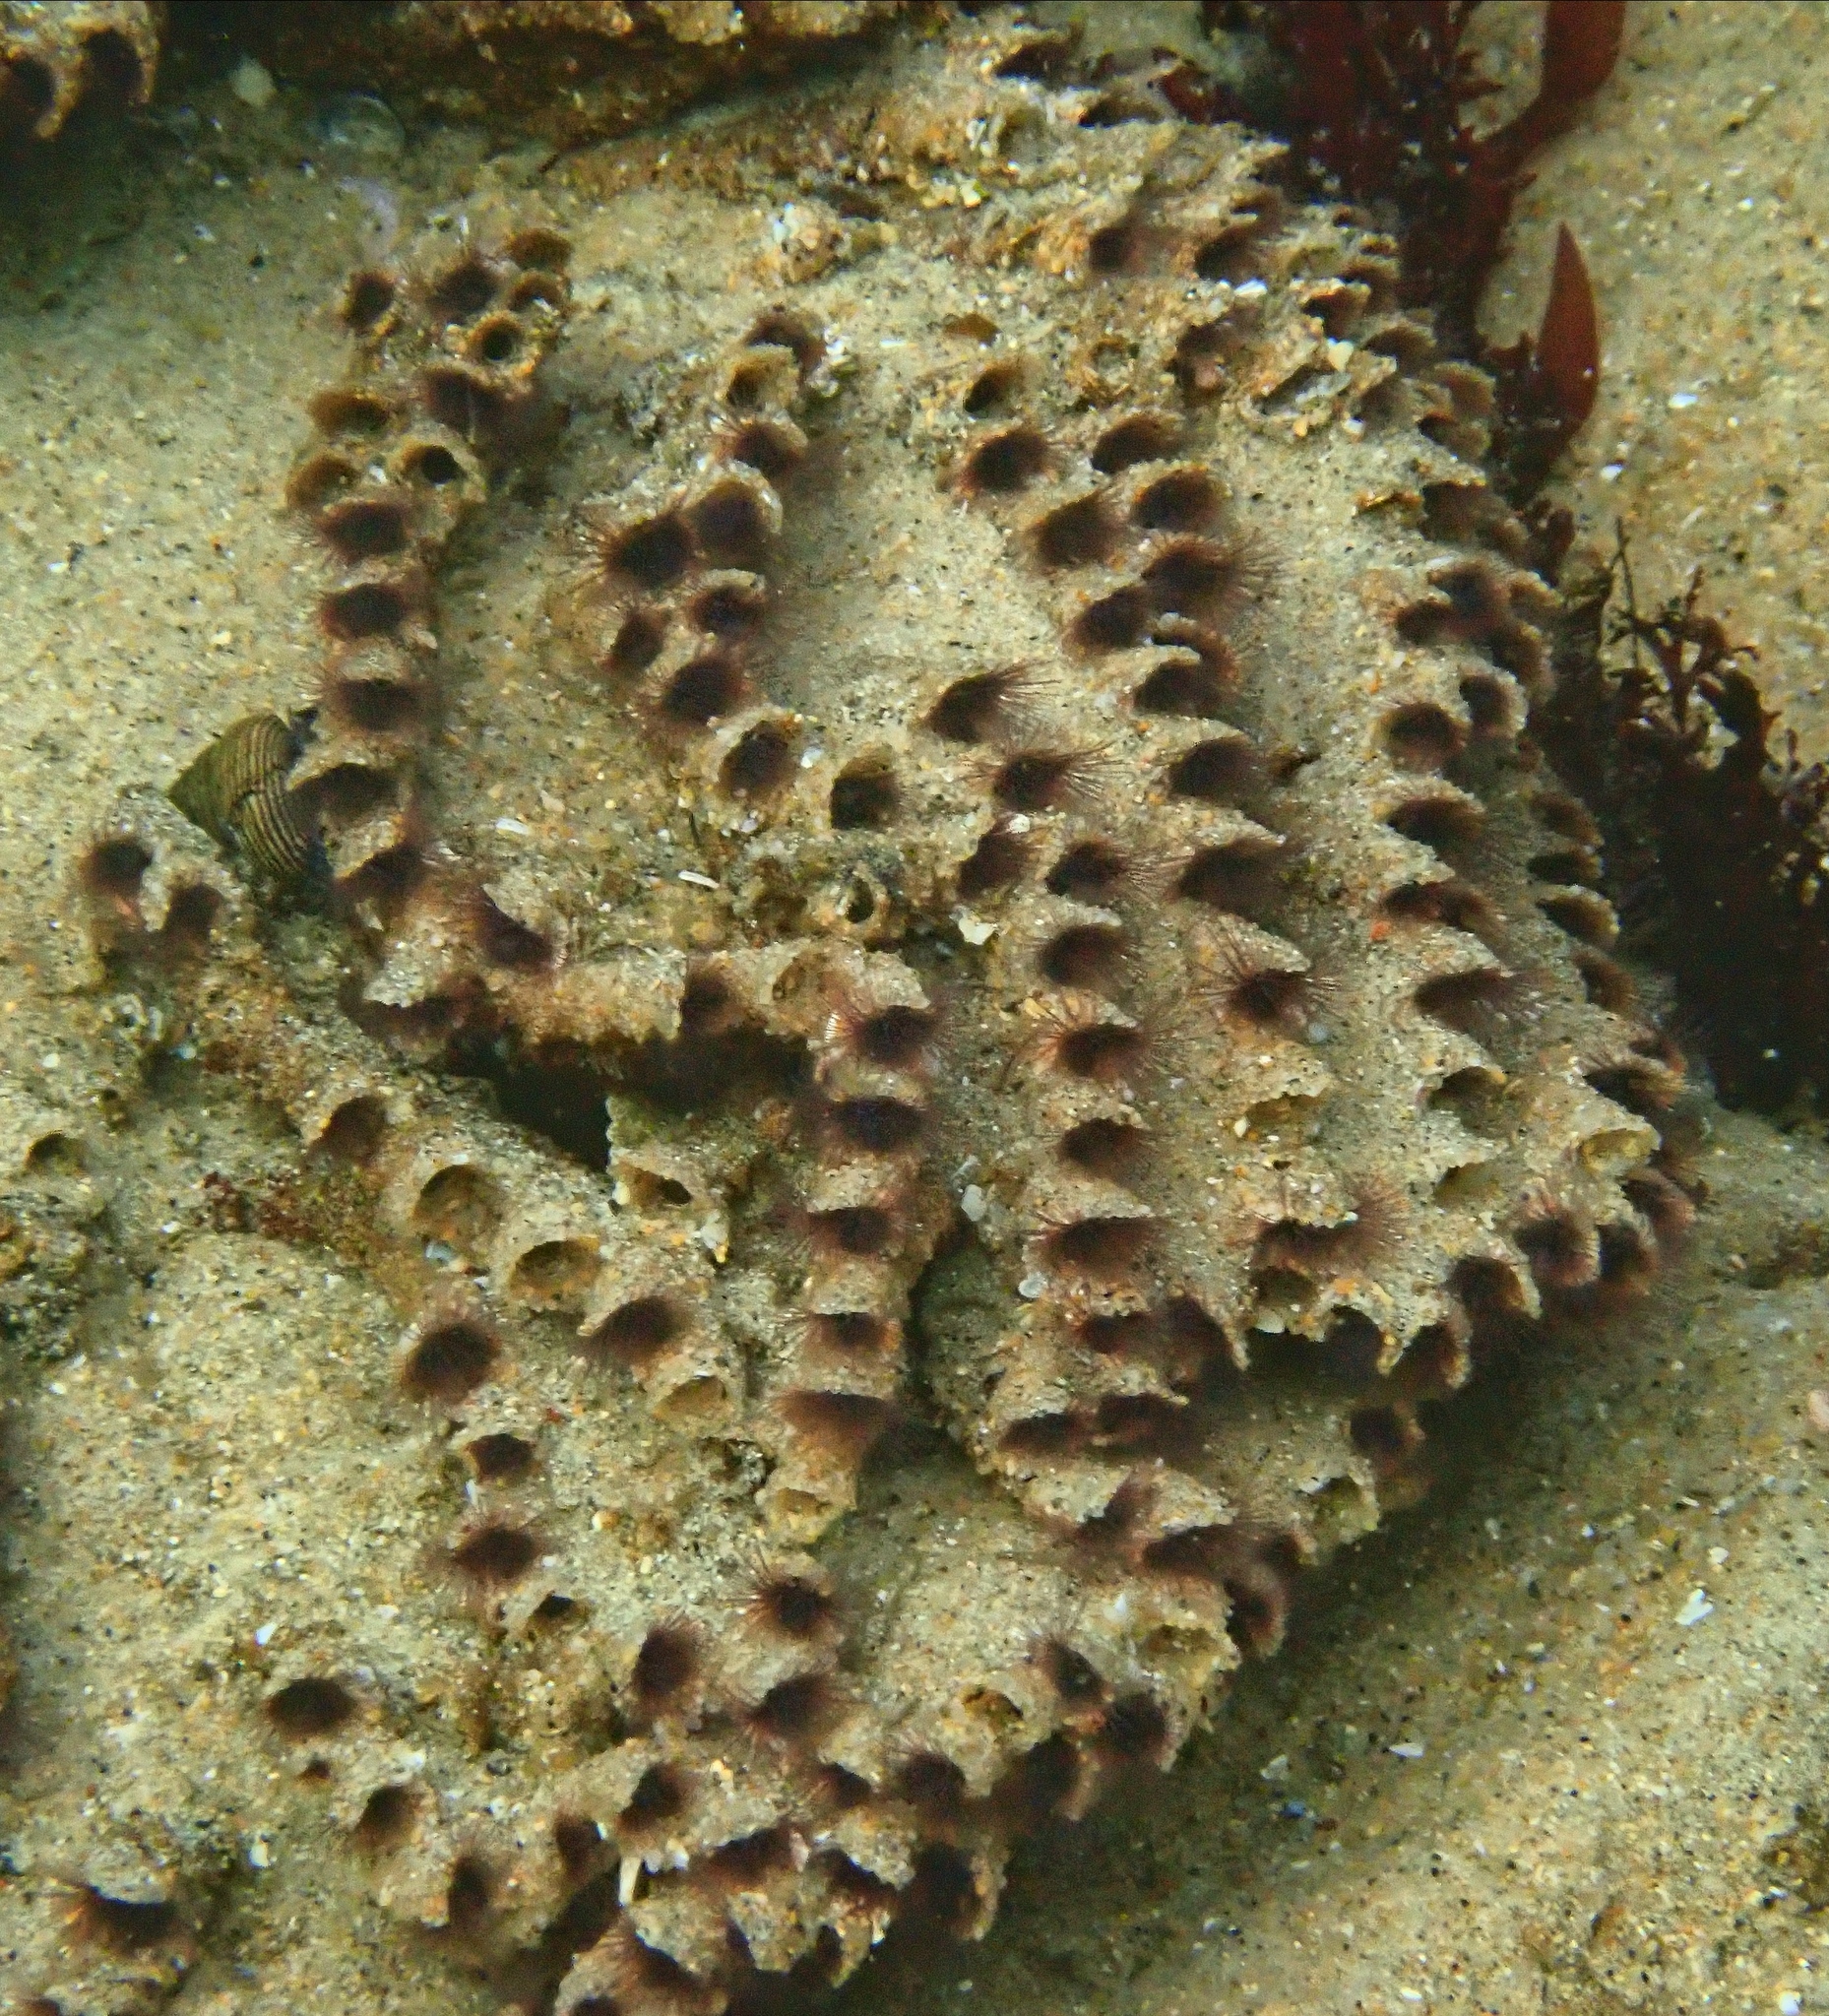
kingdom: Animalia
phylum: Annelida
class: Polychaeta
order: Sabellida
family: Sabellariidae
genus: Phragmatopoma
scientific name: Phragmatopoma californica
